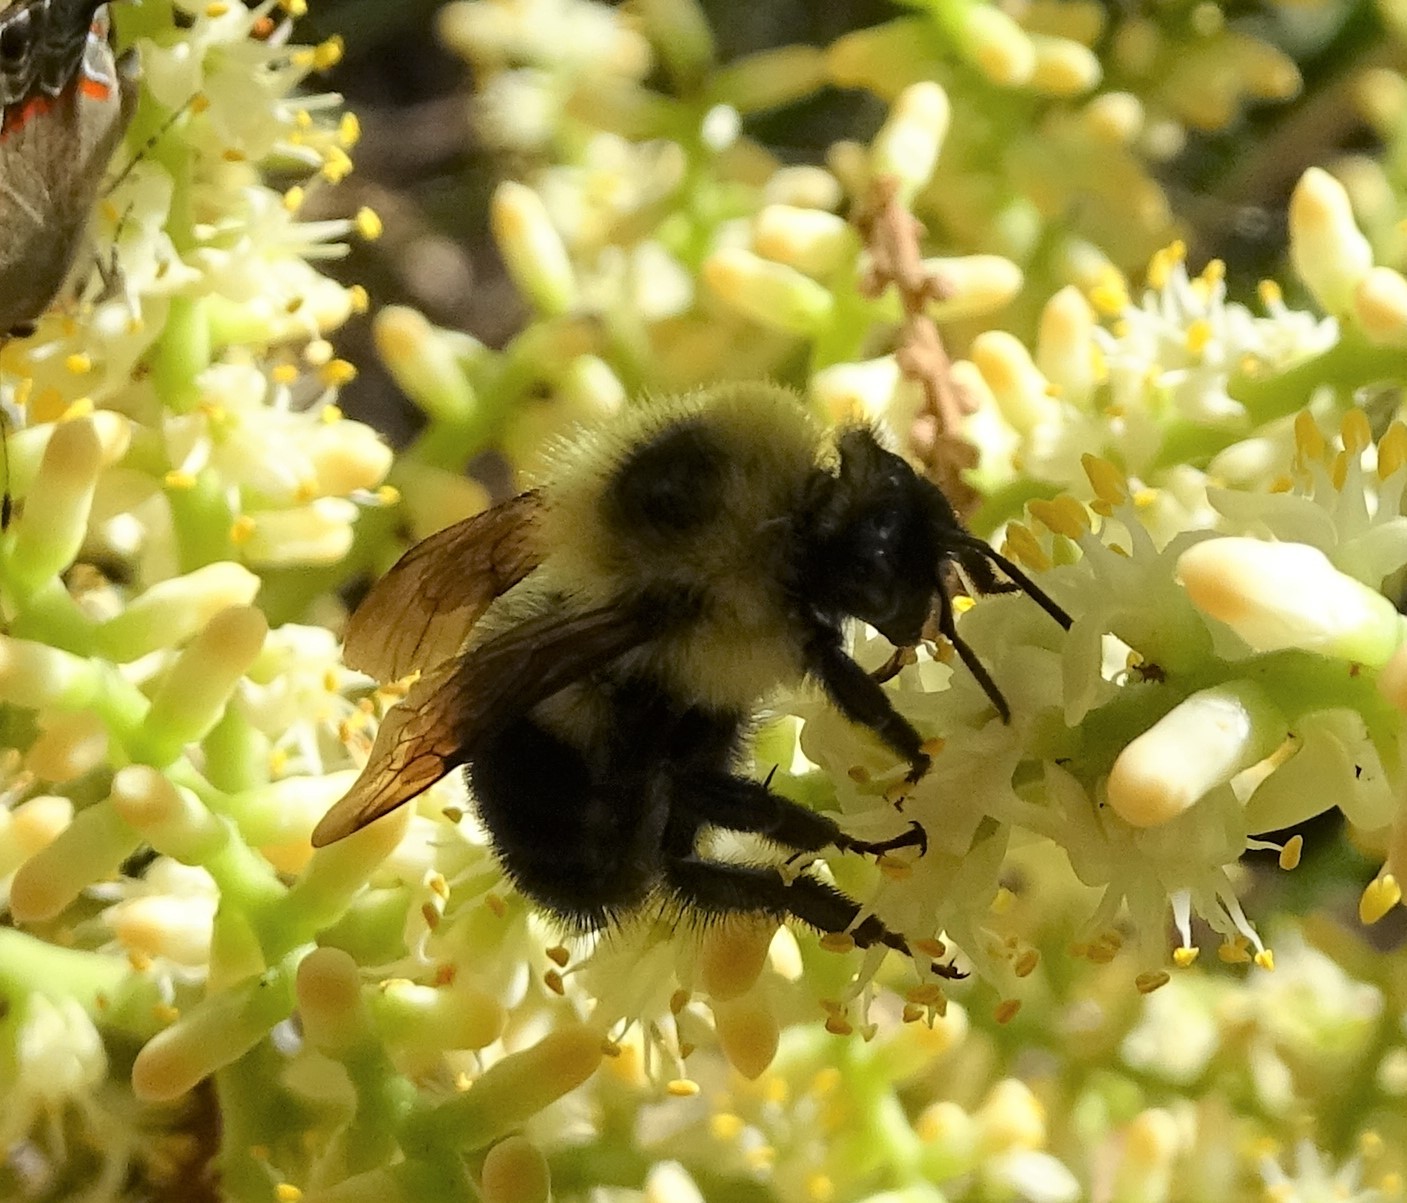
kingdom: Animalia
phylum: Arthropoda
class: Insecta
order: Hymenoptera
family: Apidae
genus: Bombus
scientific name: Bombus bimaculatus
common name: Two-spotted bumble bee
